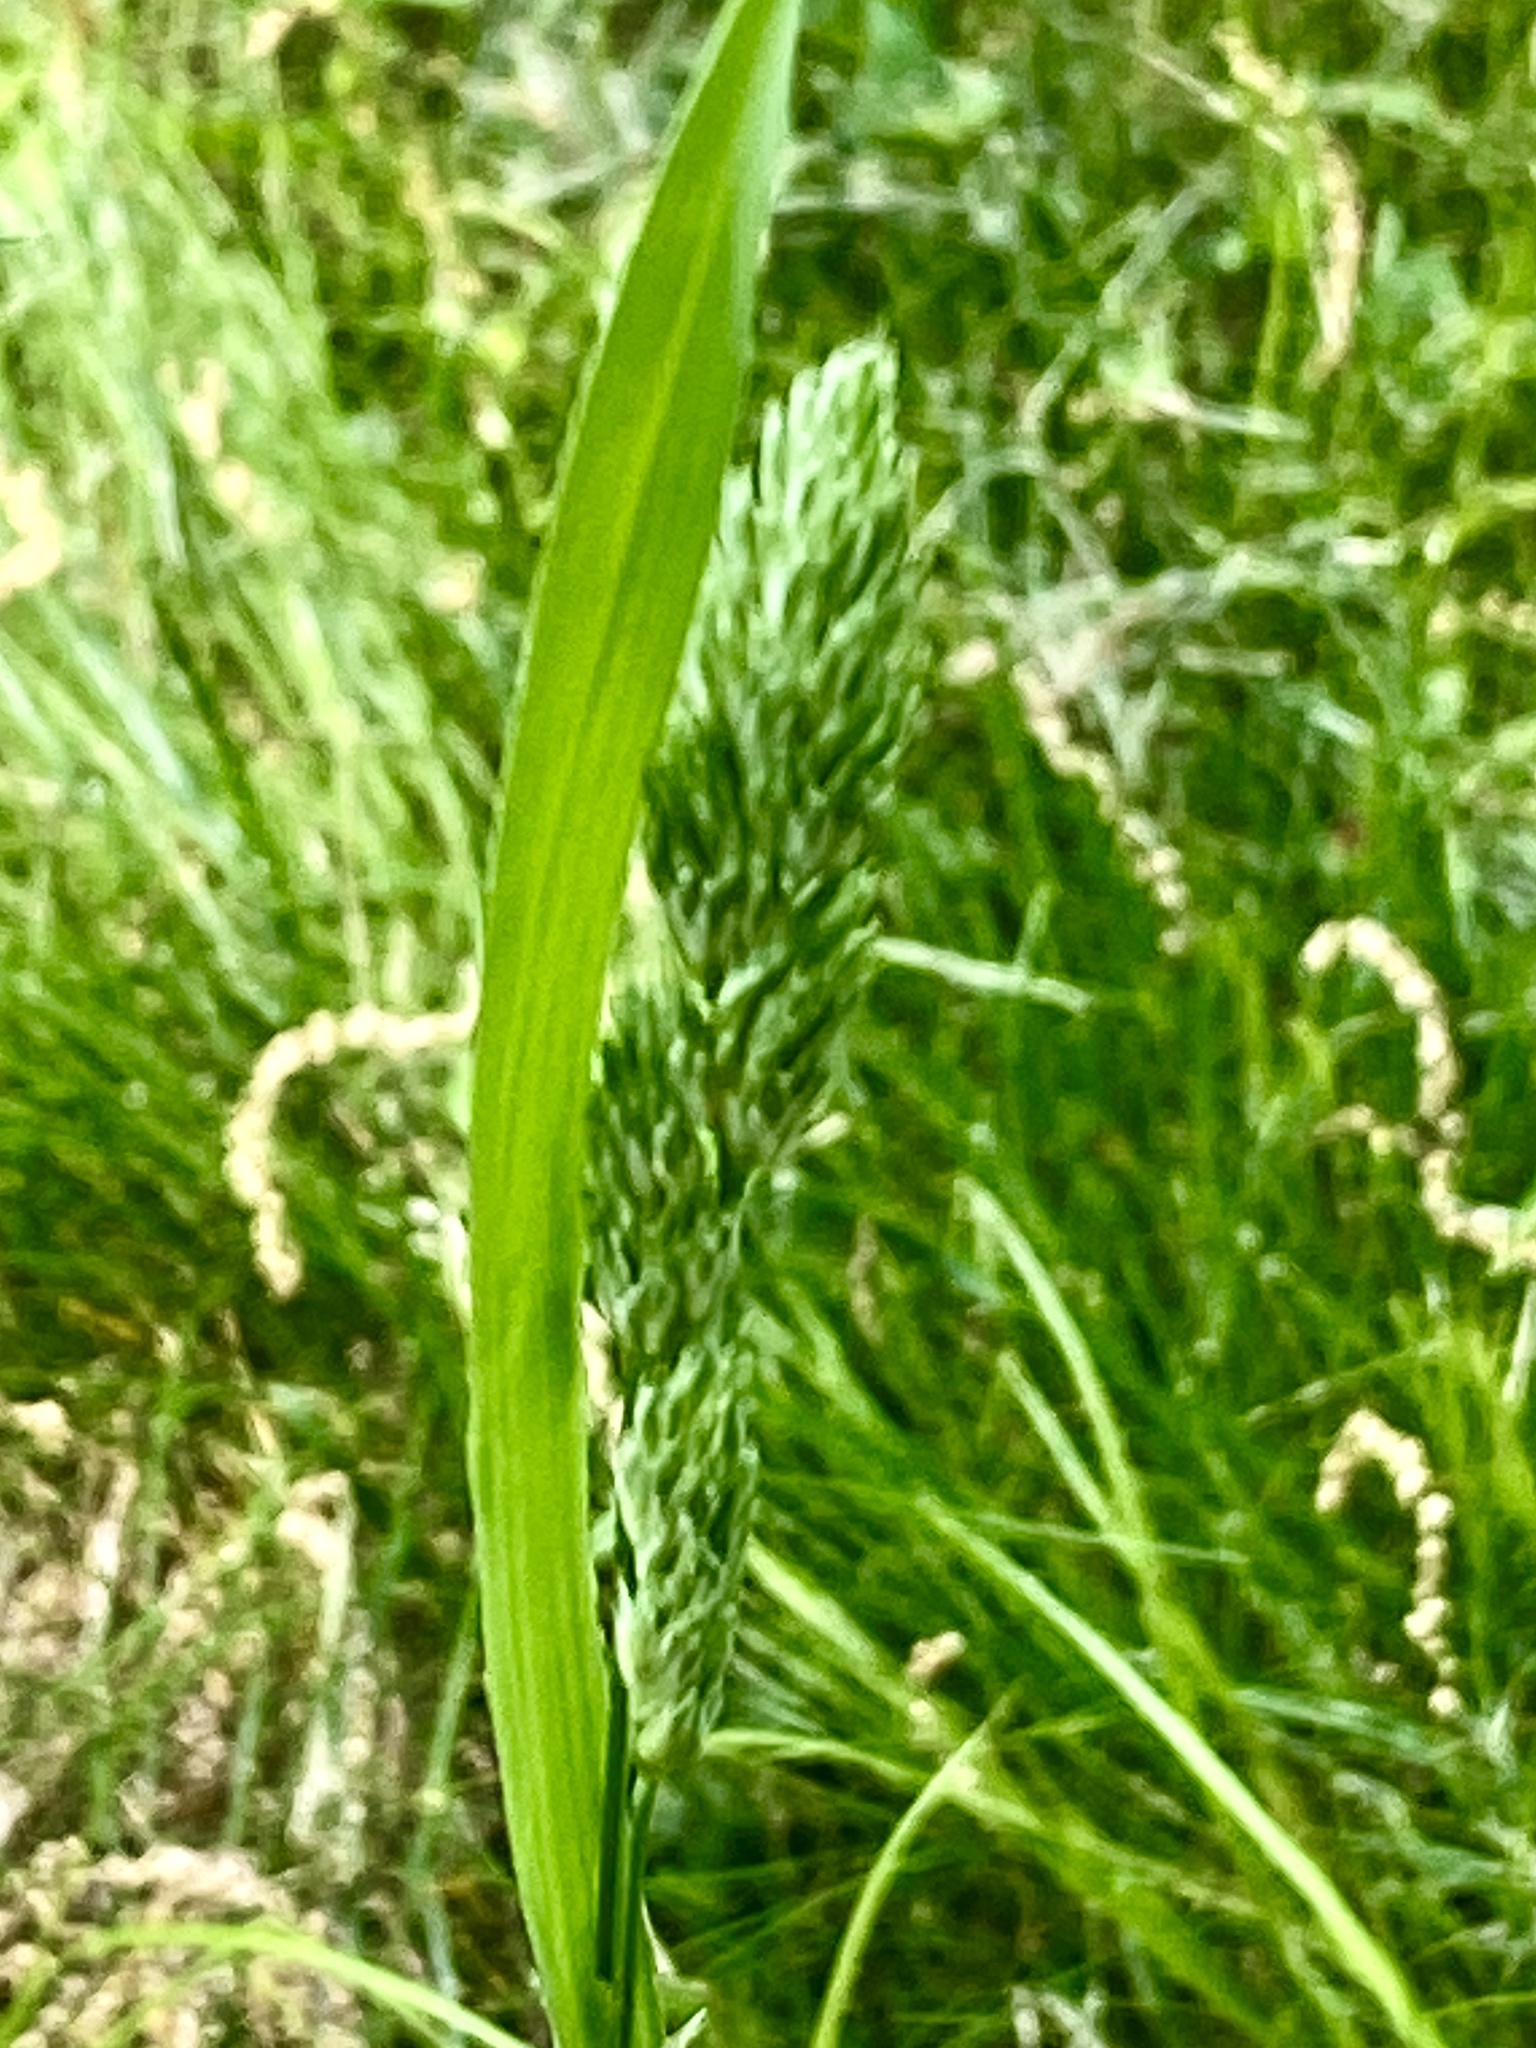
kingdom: Plantae
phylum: Tracheophyta
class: Liliopsida
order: Poales
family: Poaceae
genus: Dactylis
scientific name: Dactylis glomerata
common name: Orchardgrass
